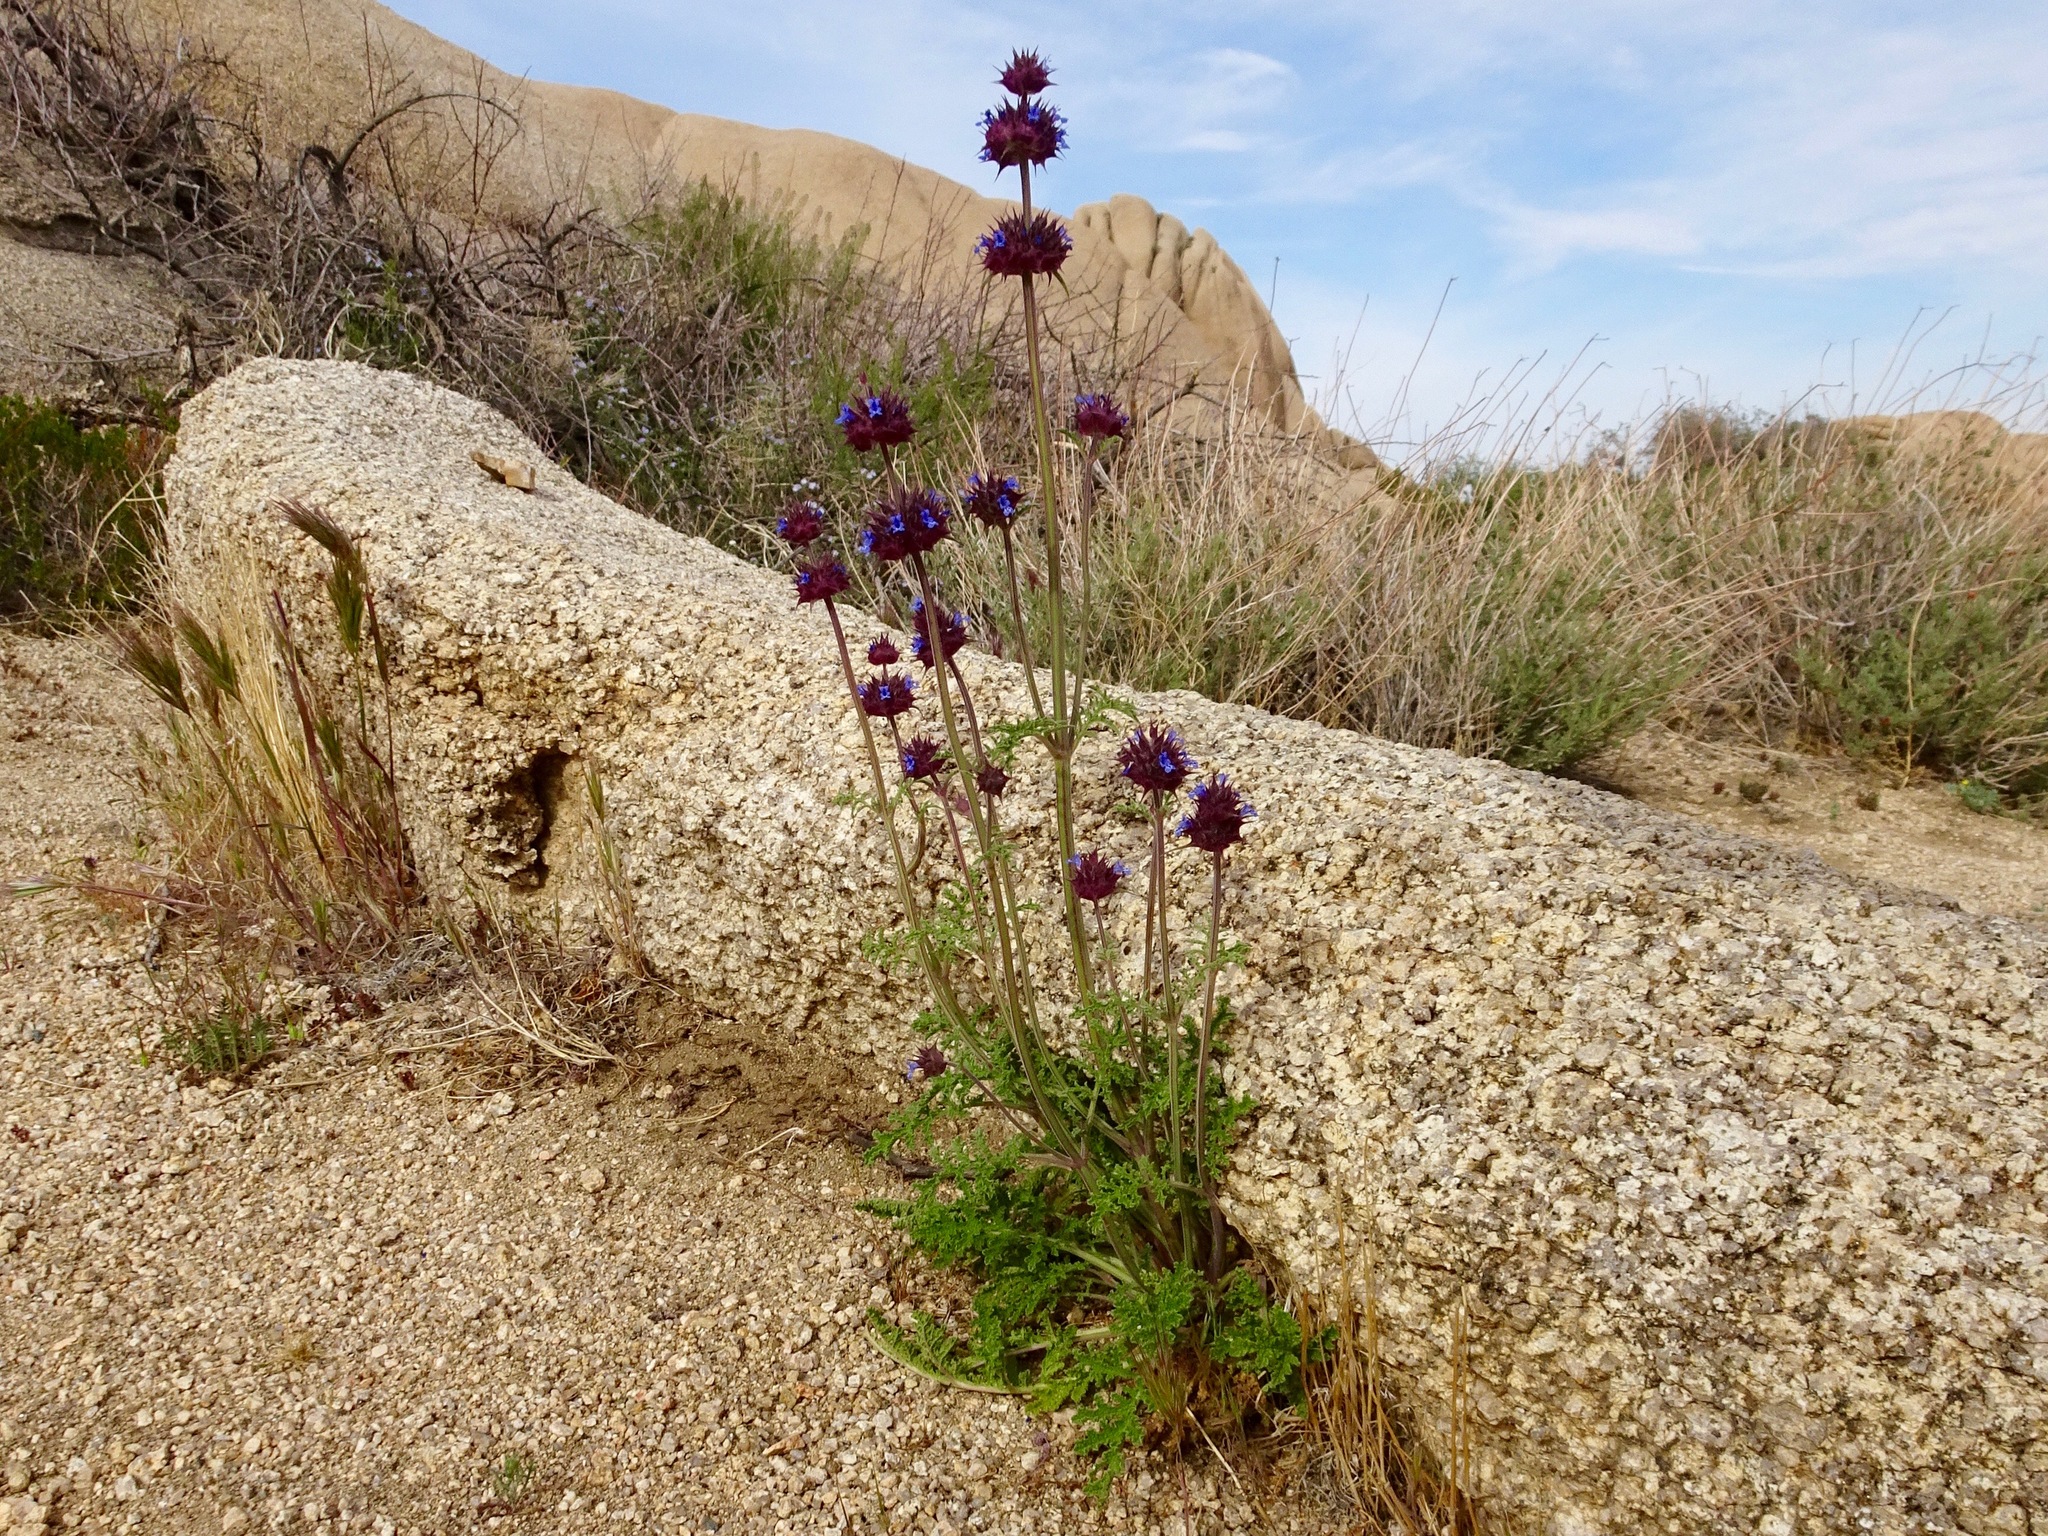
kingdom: Plantae
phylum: Tracheophyta
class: Magnoliopsida
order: Lamiales
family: Lamiaceae
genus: Salvia
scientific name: Salvia columbariae
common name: Chia
